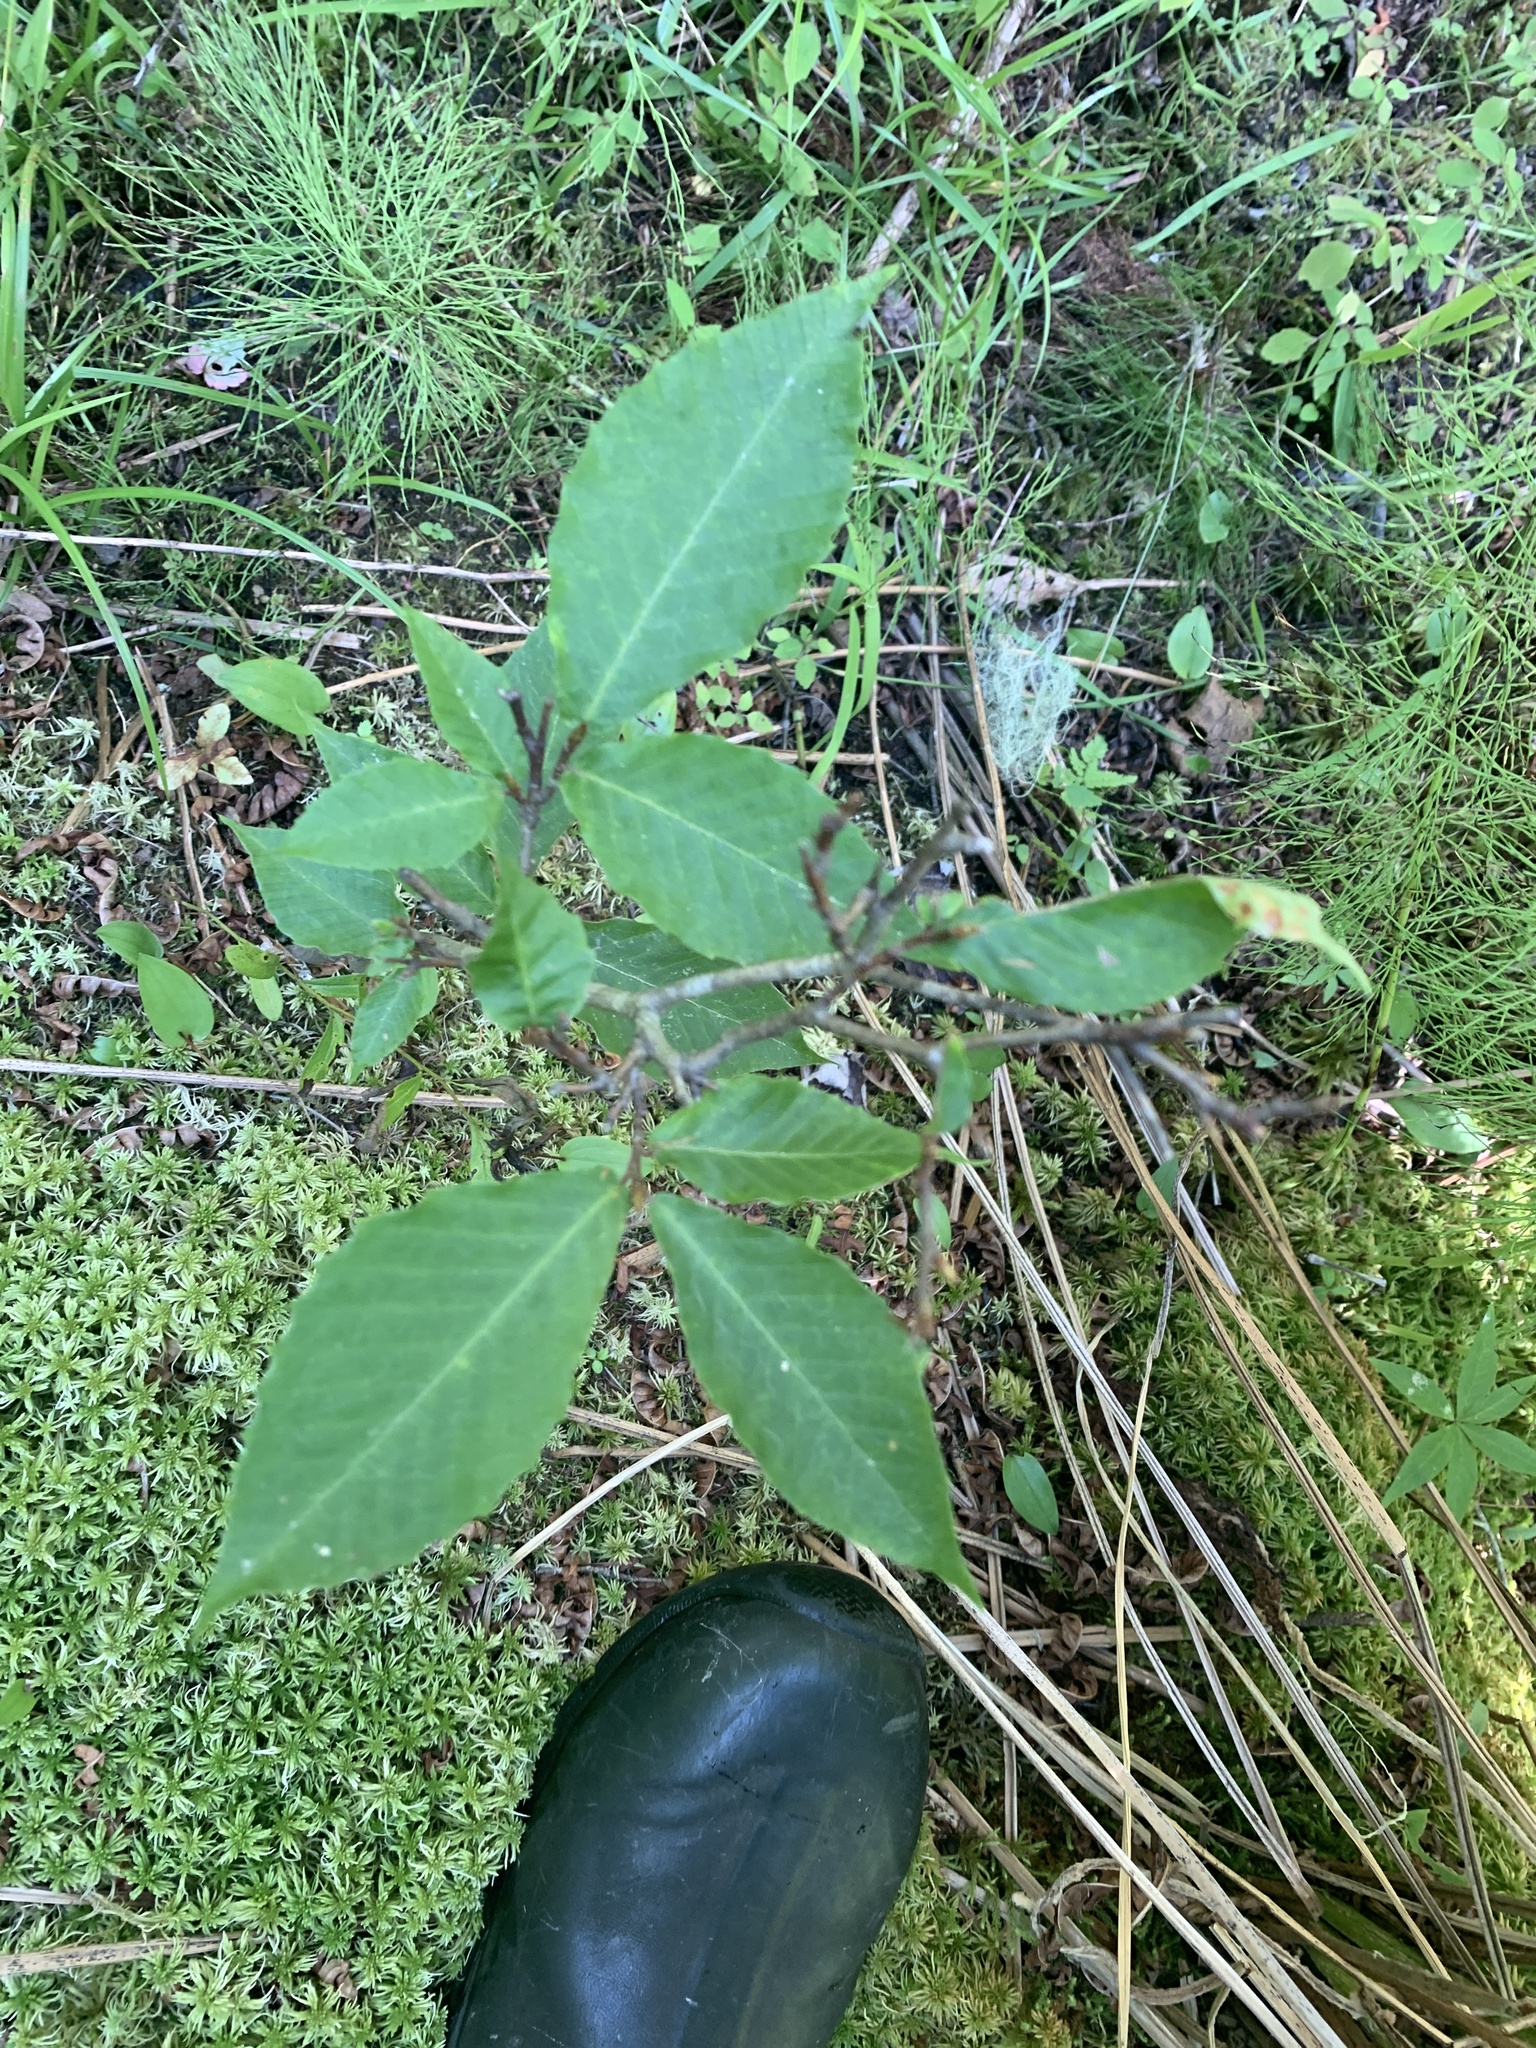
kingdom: Plantae
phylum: Tracheophyta
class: Magnoliopsida
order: Fagales
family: Fagaceae
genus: Fagus
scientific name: Fagus grandifolia
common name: American beech
